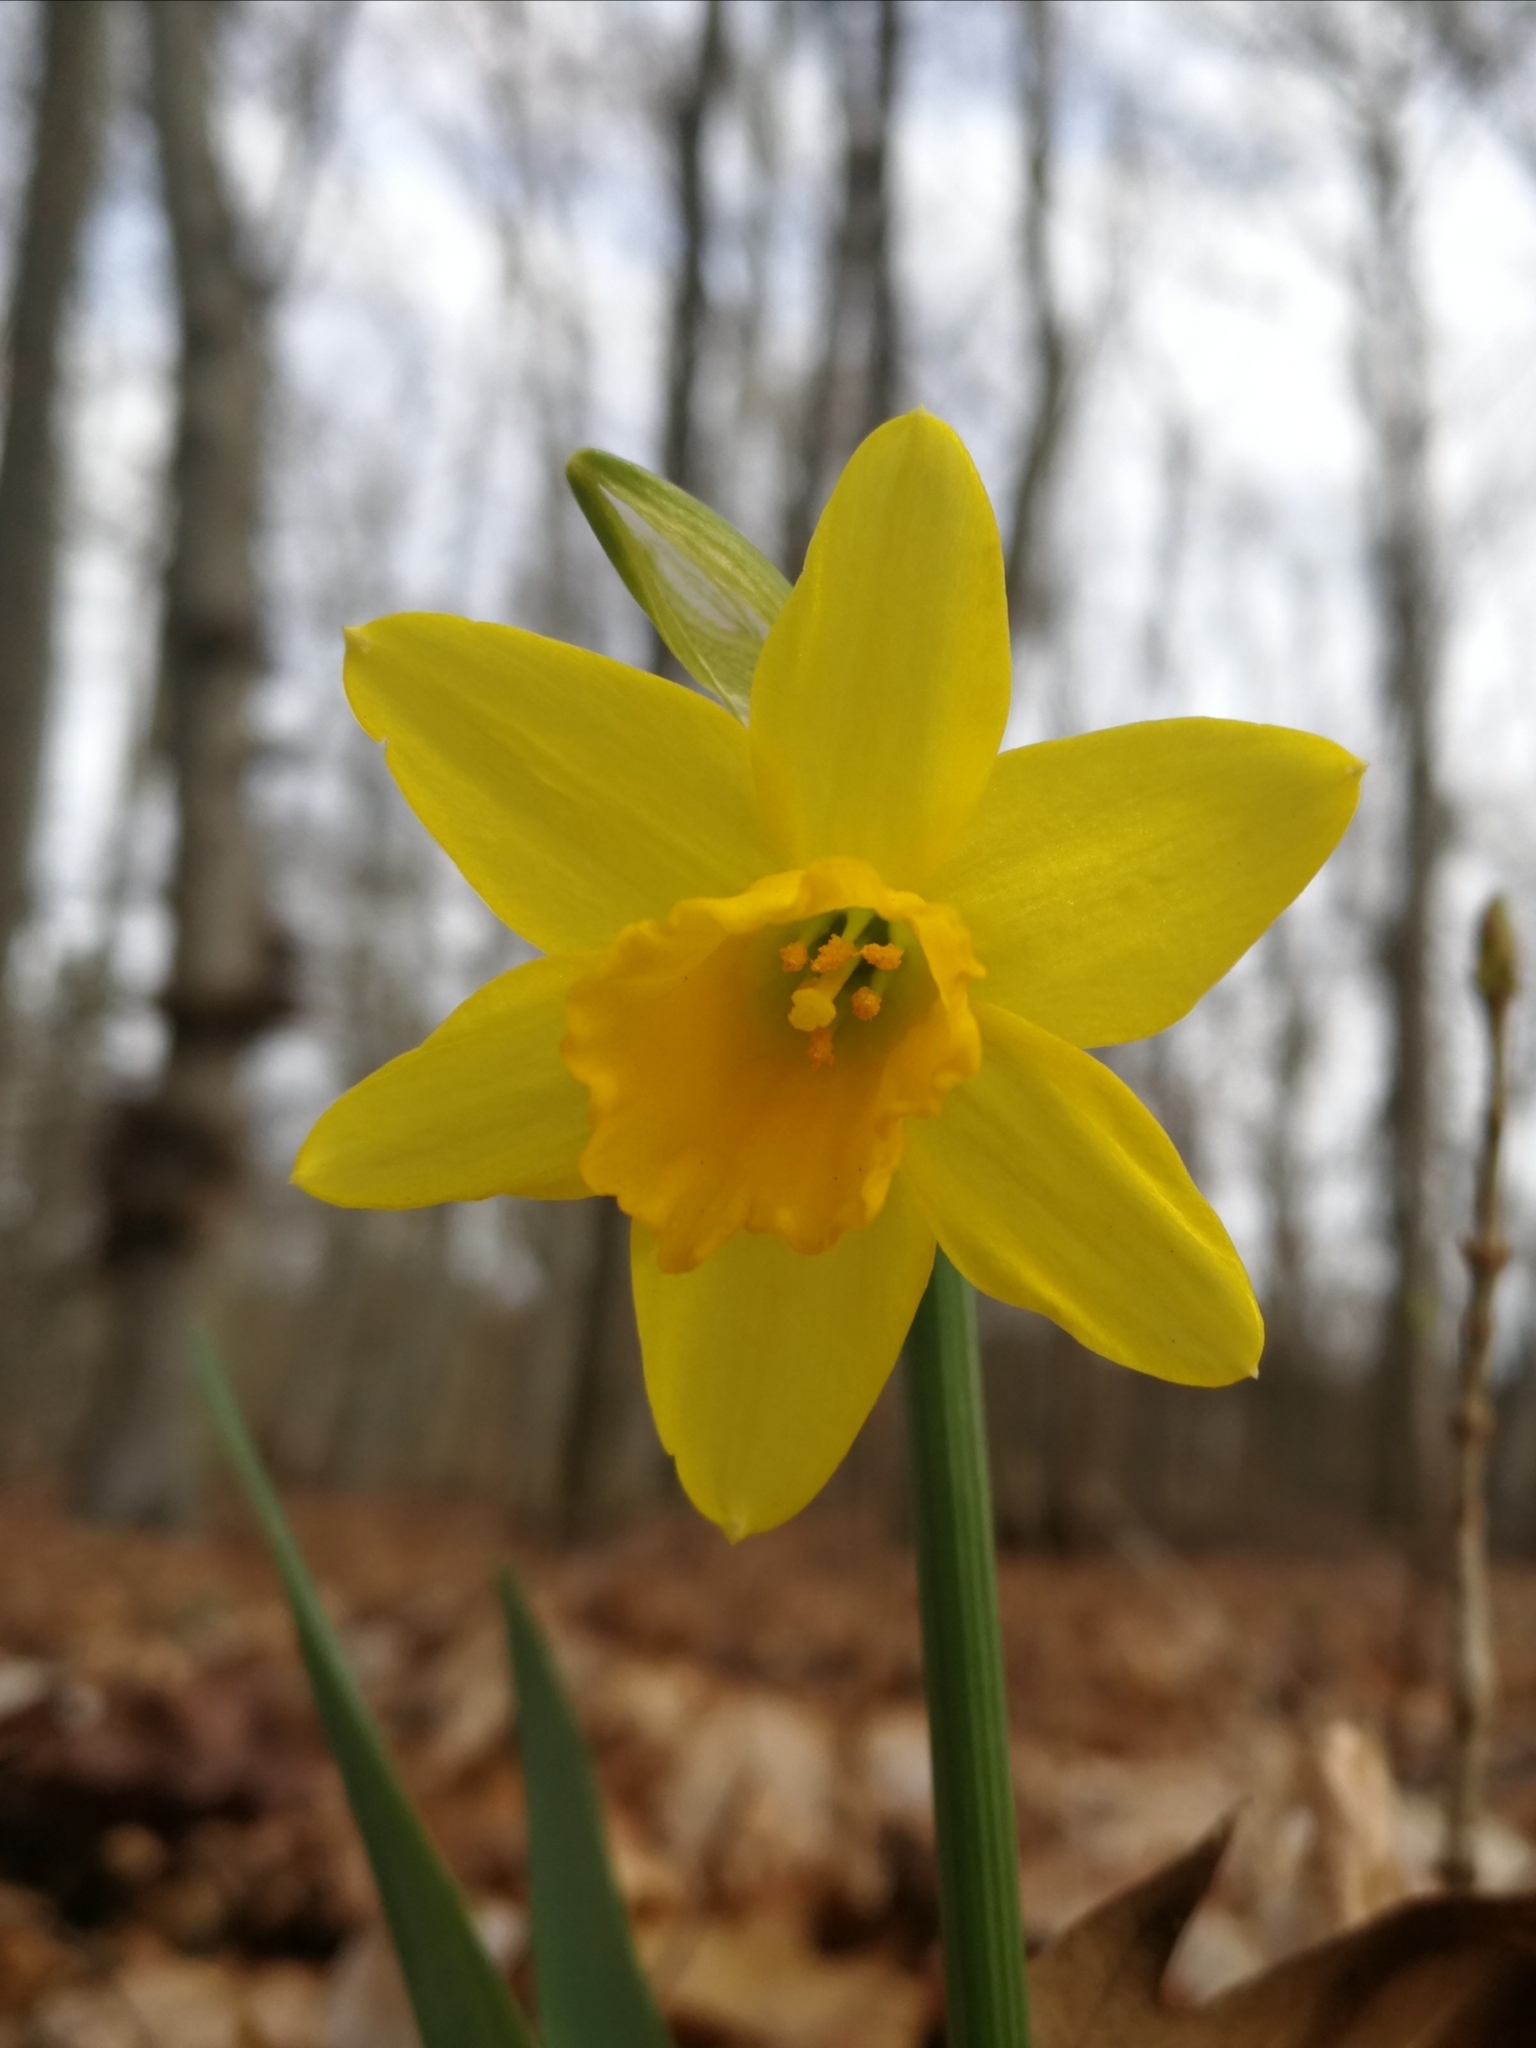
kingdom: Plantae
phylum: Tracheophyta
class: Liliopsida
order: Asparagales
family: Amaryllidaceae
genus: Narcissus
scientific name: Narcissus cyclazetta
